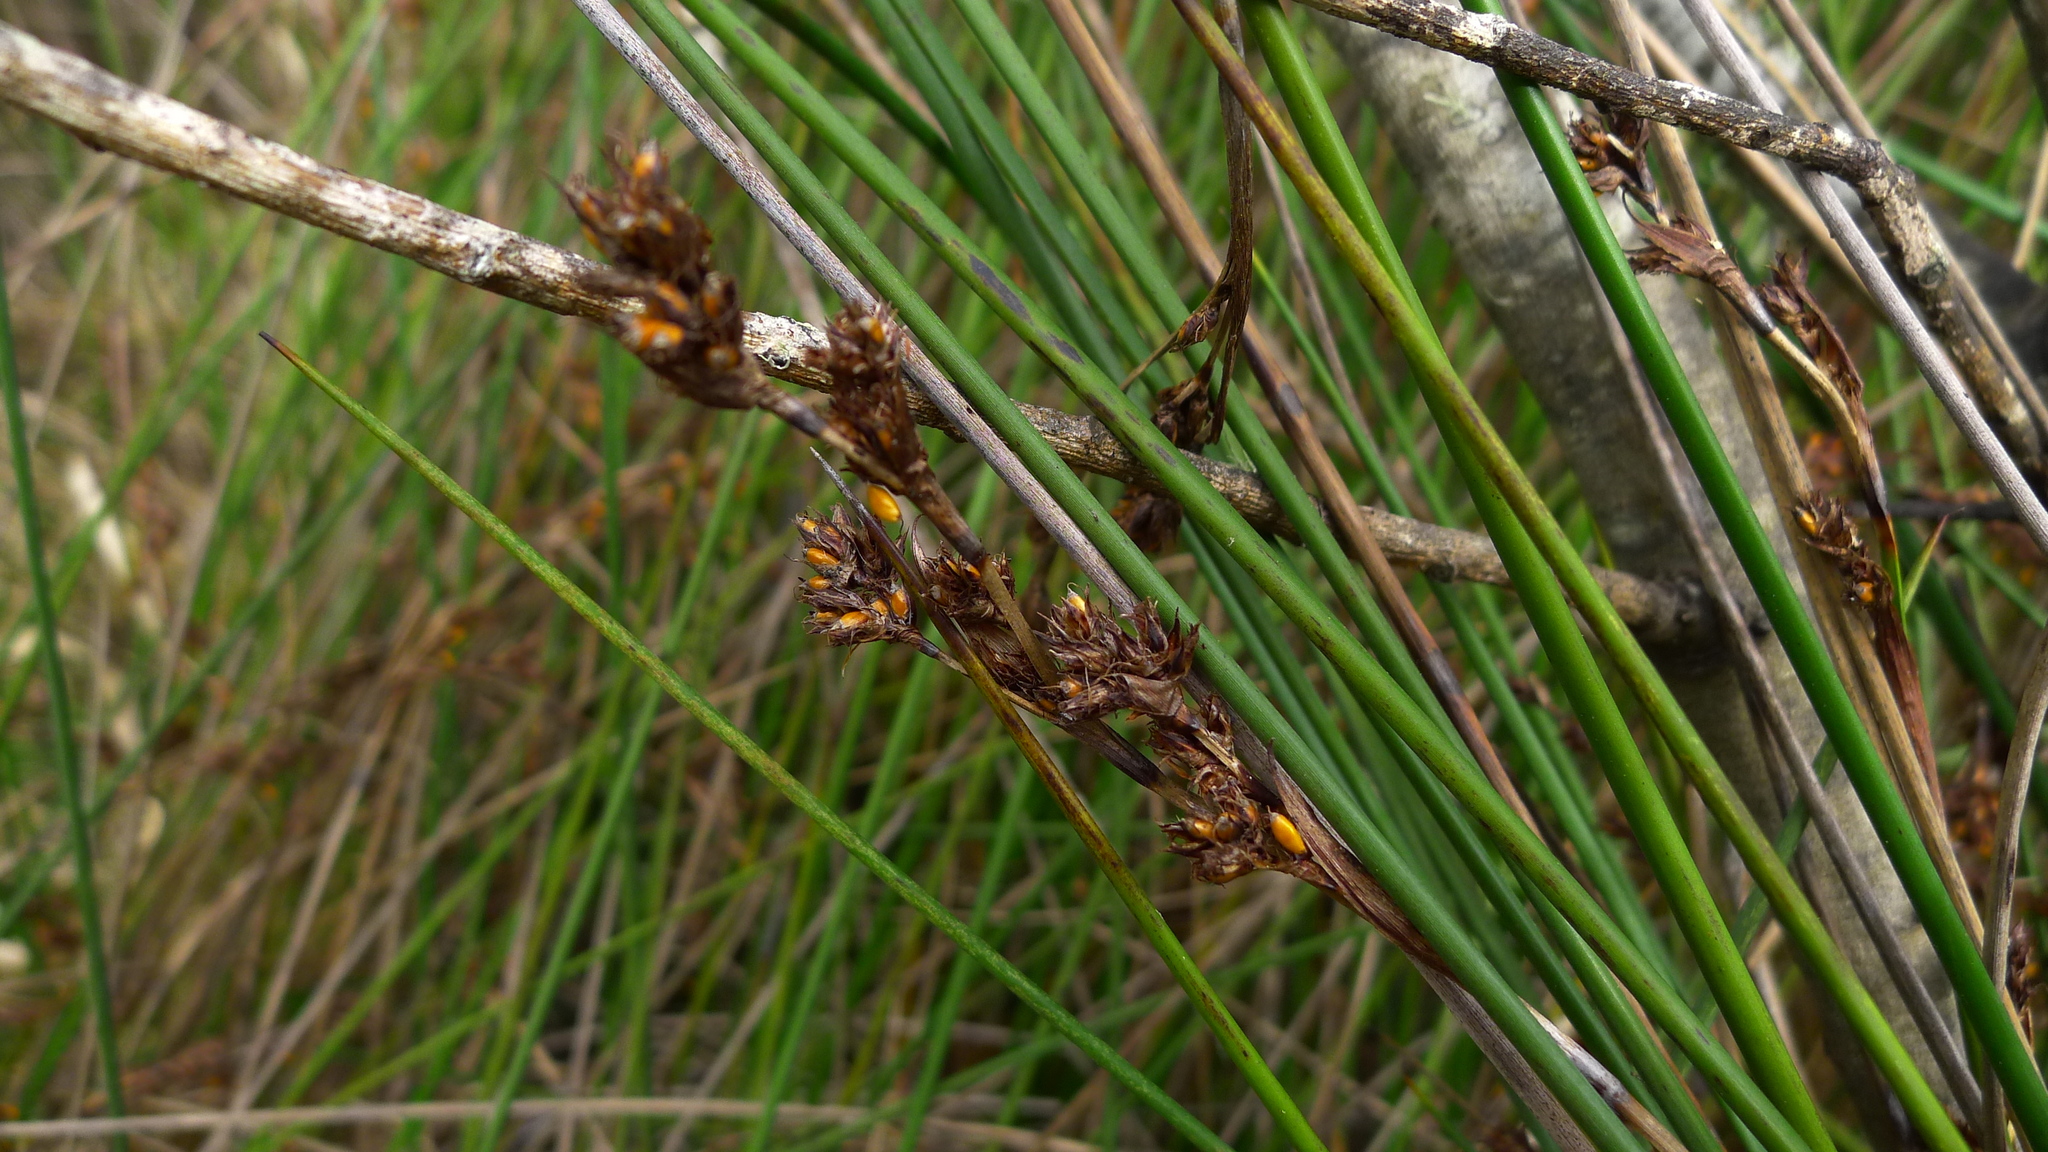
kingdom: Plantae
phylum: Tracheophyta
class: Liliopsida
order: Poales
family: Cyperaceae
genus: Machaerina
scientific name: Machaerina rubiginosa
